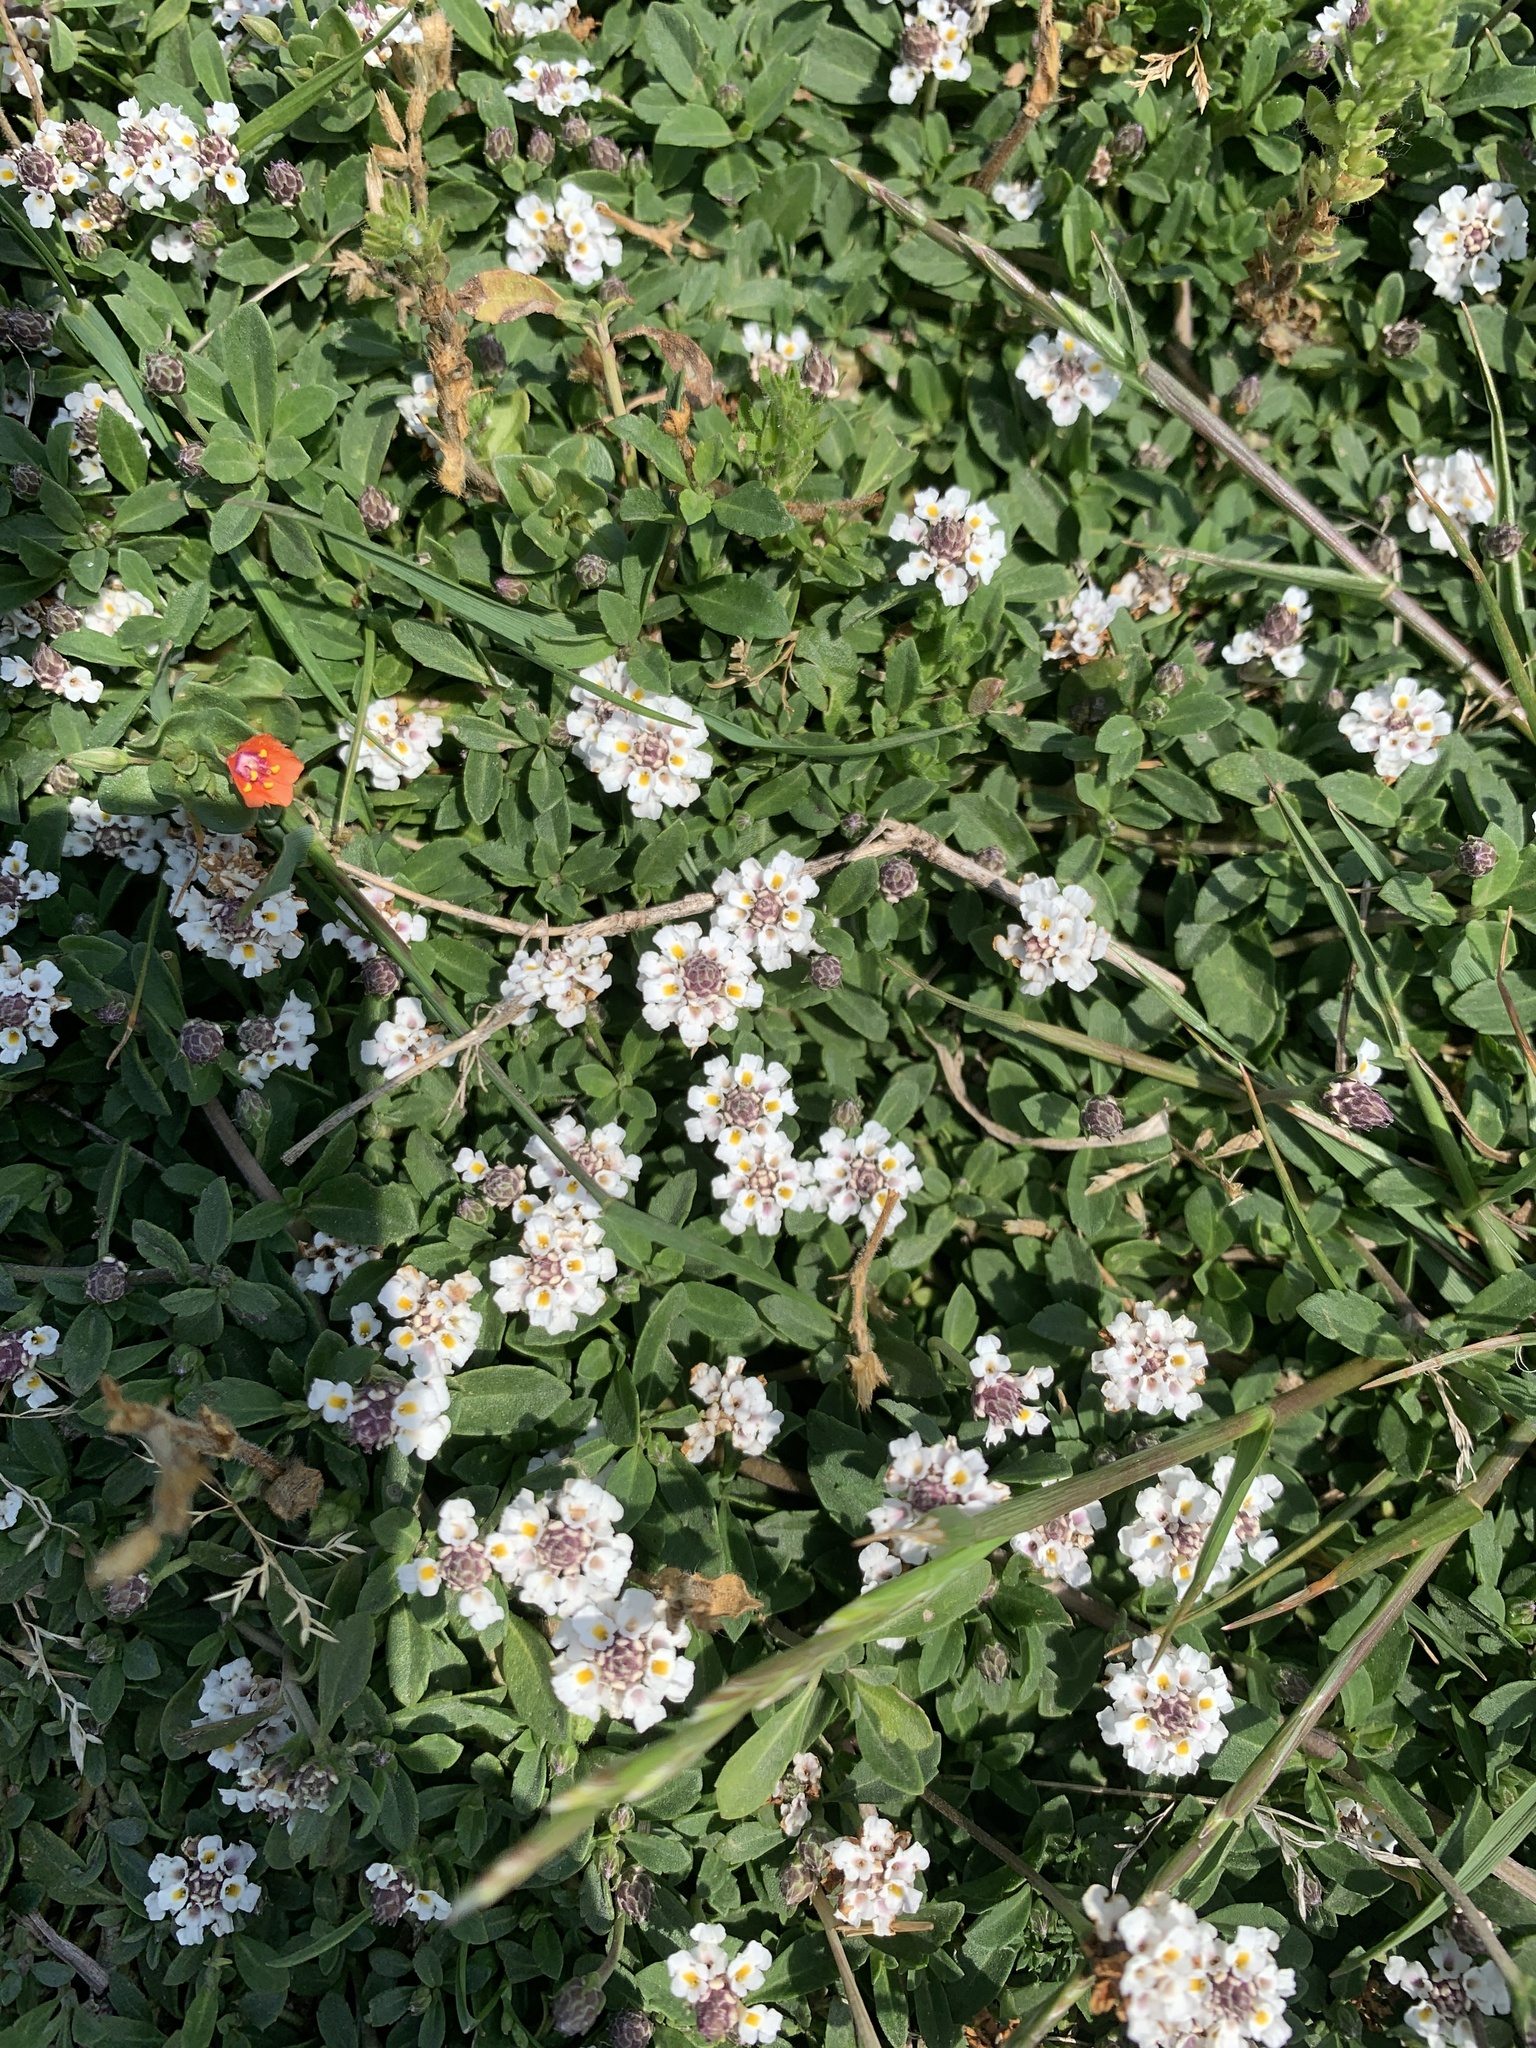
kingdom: Plantae
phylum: Tracheophyta
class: Magnoliopsida
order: Lamiales
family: Verbenaceae
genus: Phyla
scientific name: Phyla nodiflora
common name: Frogfruit
